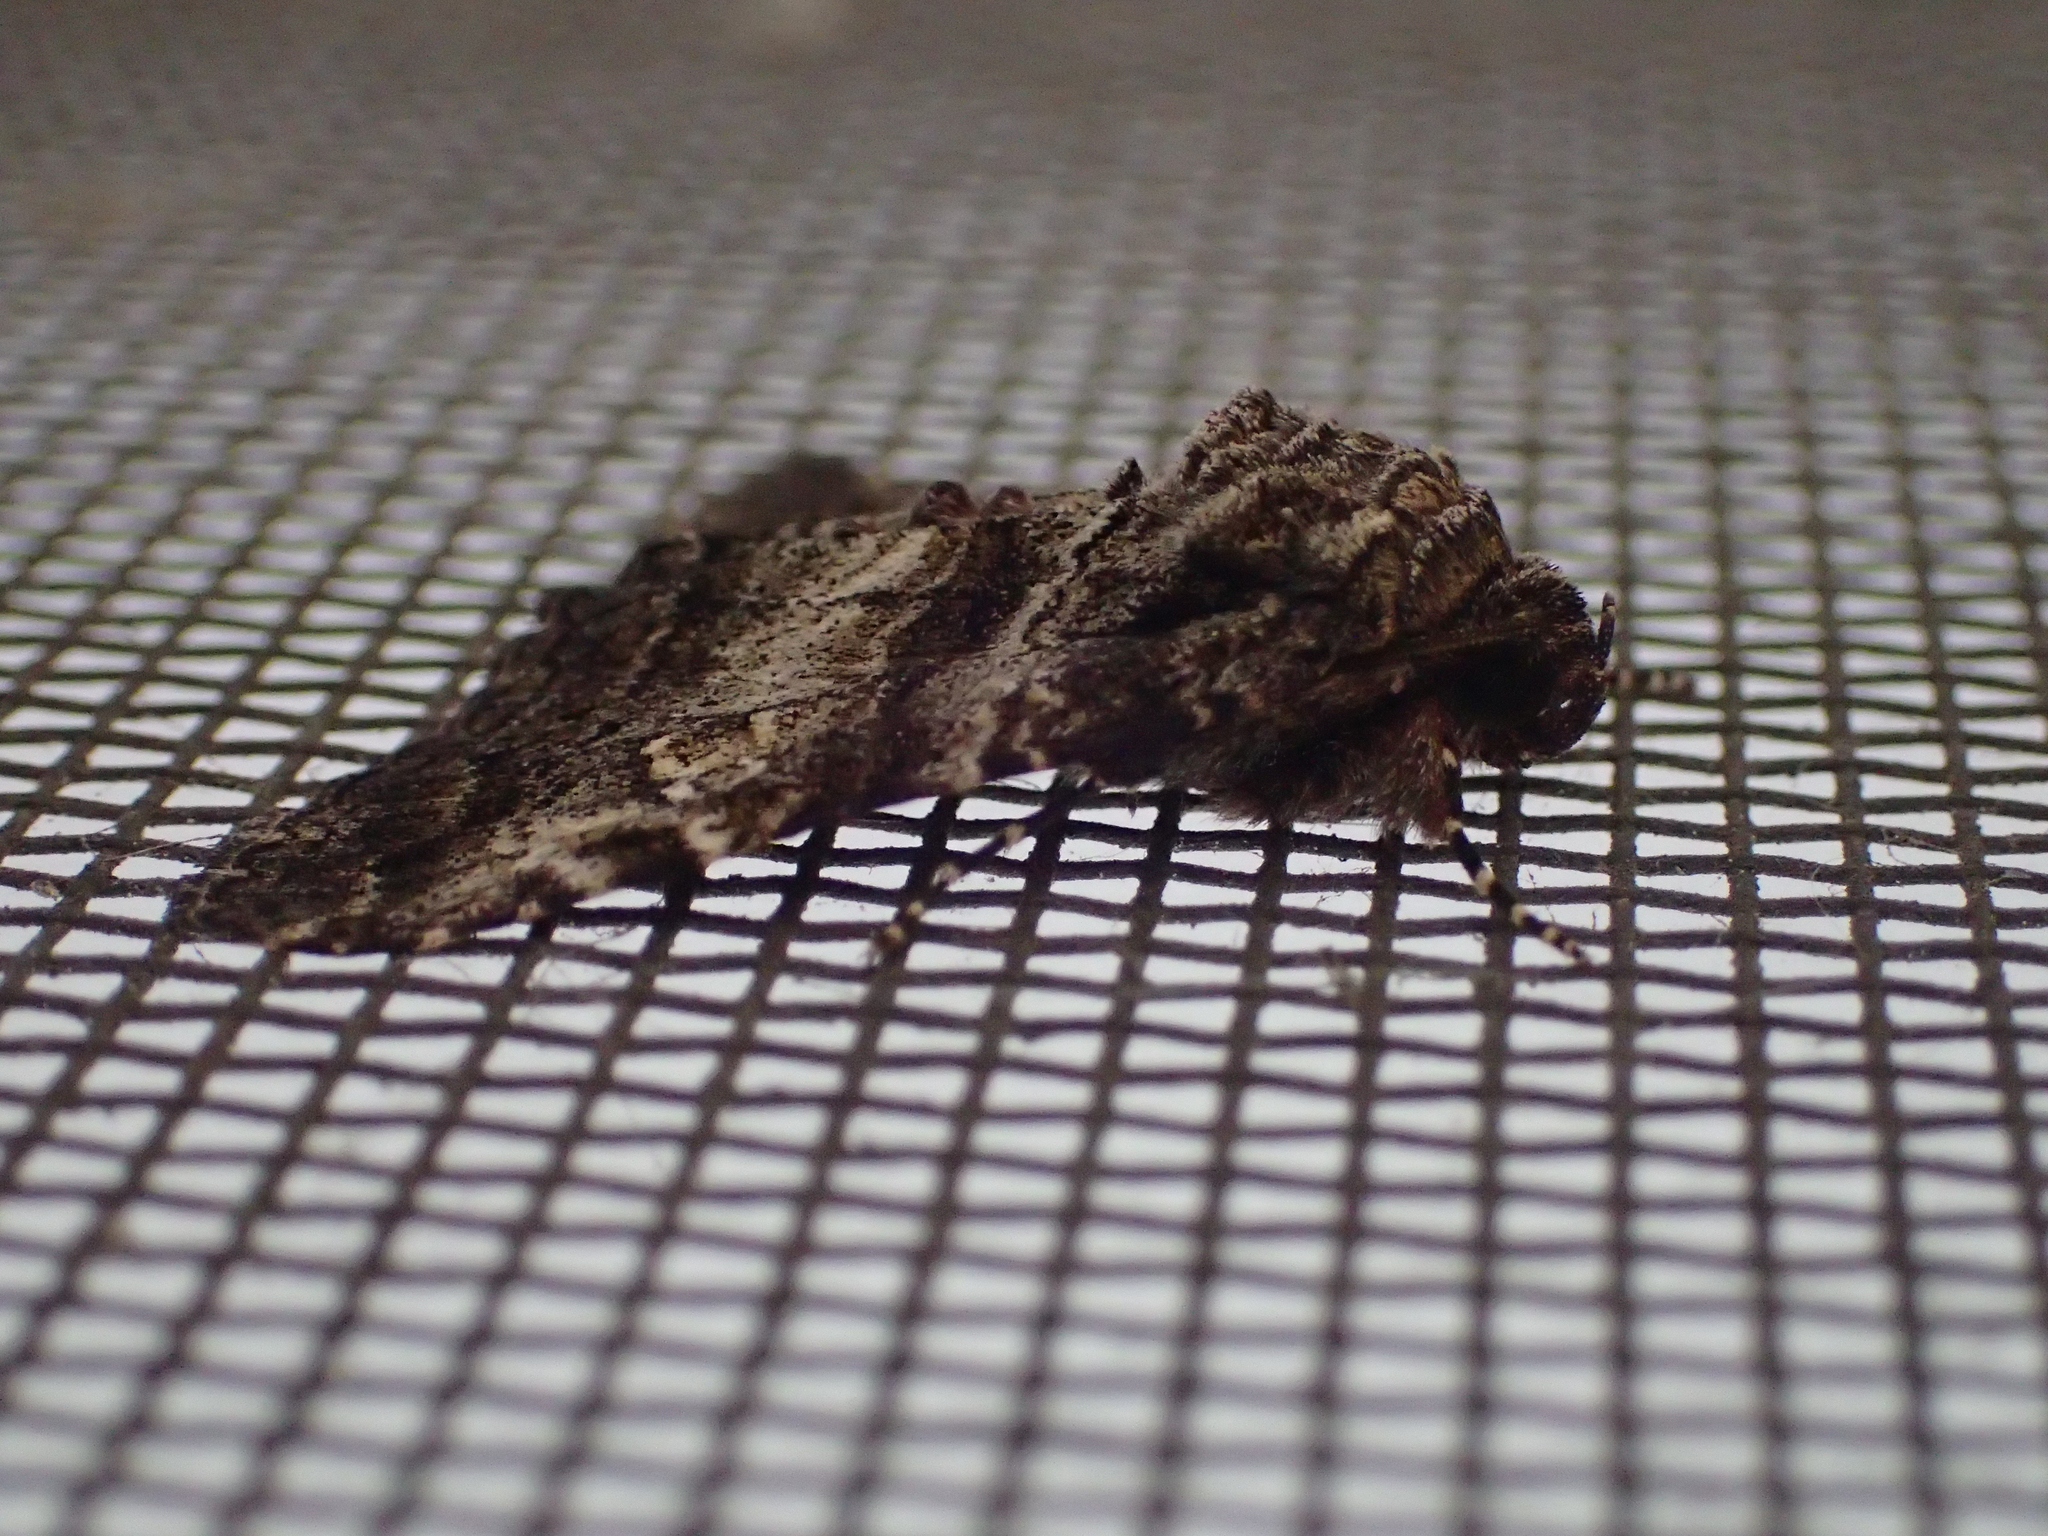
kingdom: Animalia
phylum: Arthropoda
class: Insecta
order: Lepidoptera
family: Erebidae
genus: Metria
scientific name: Metria amella
